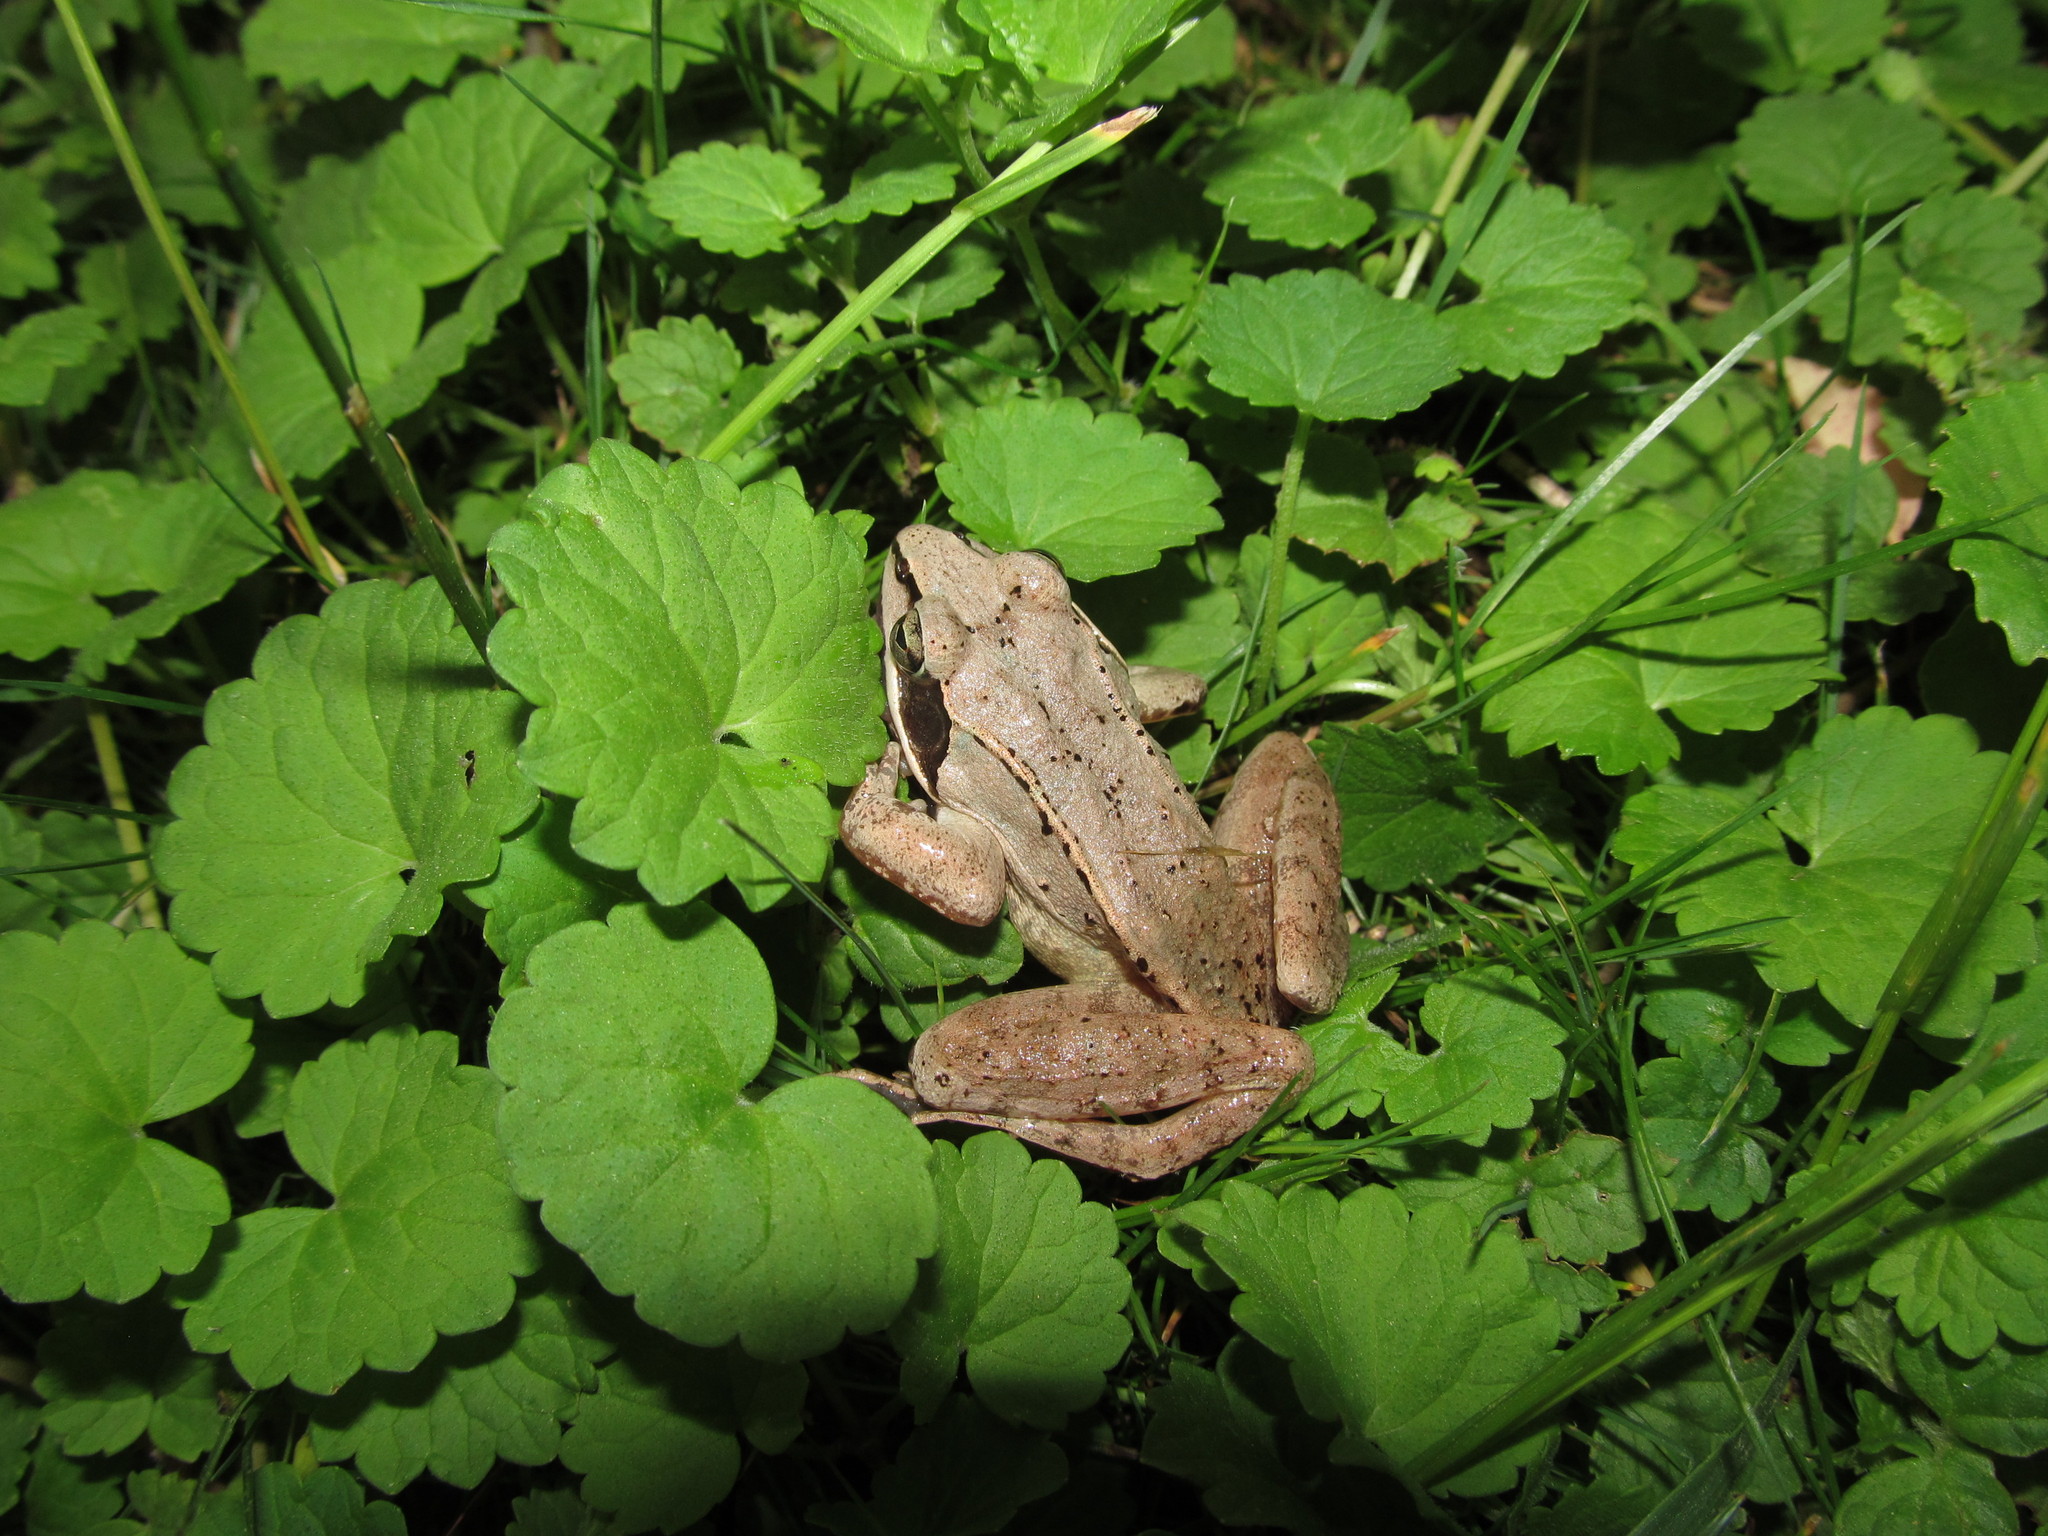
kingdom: Animalia
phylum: Chordata
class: Amphibia
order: Anura
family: Ranidae
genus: Lithobates
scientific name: Lithobates sylvaticus
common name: Wood frog
